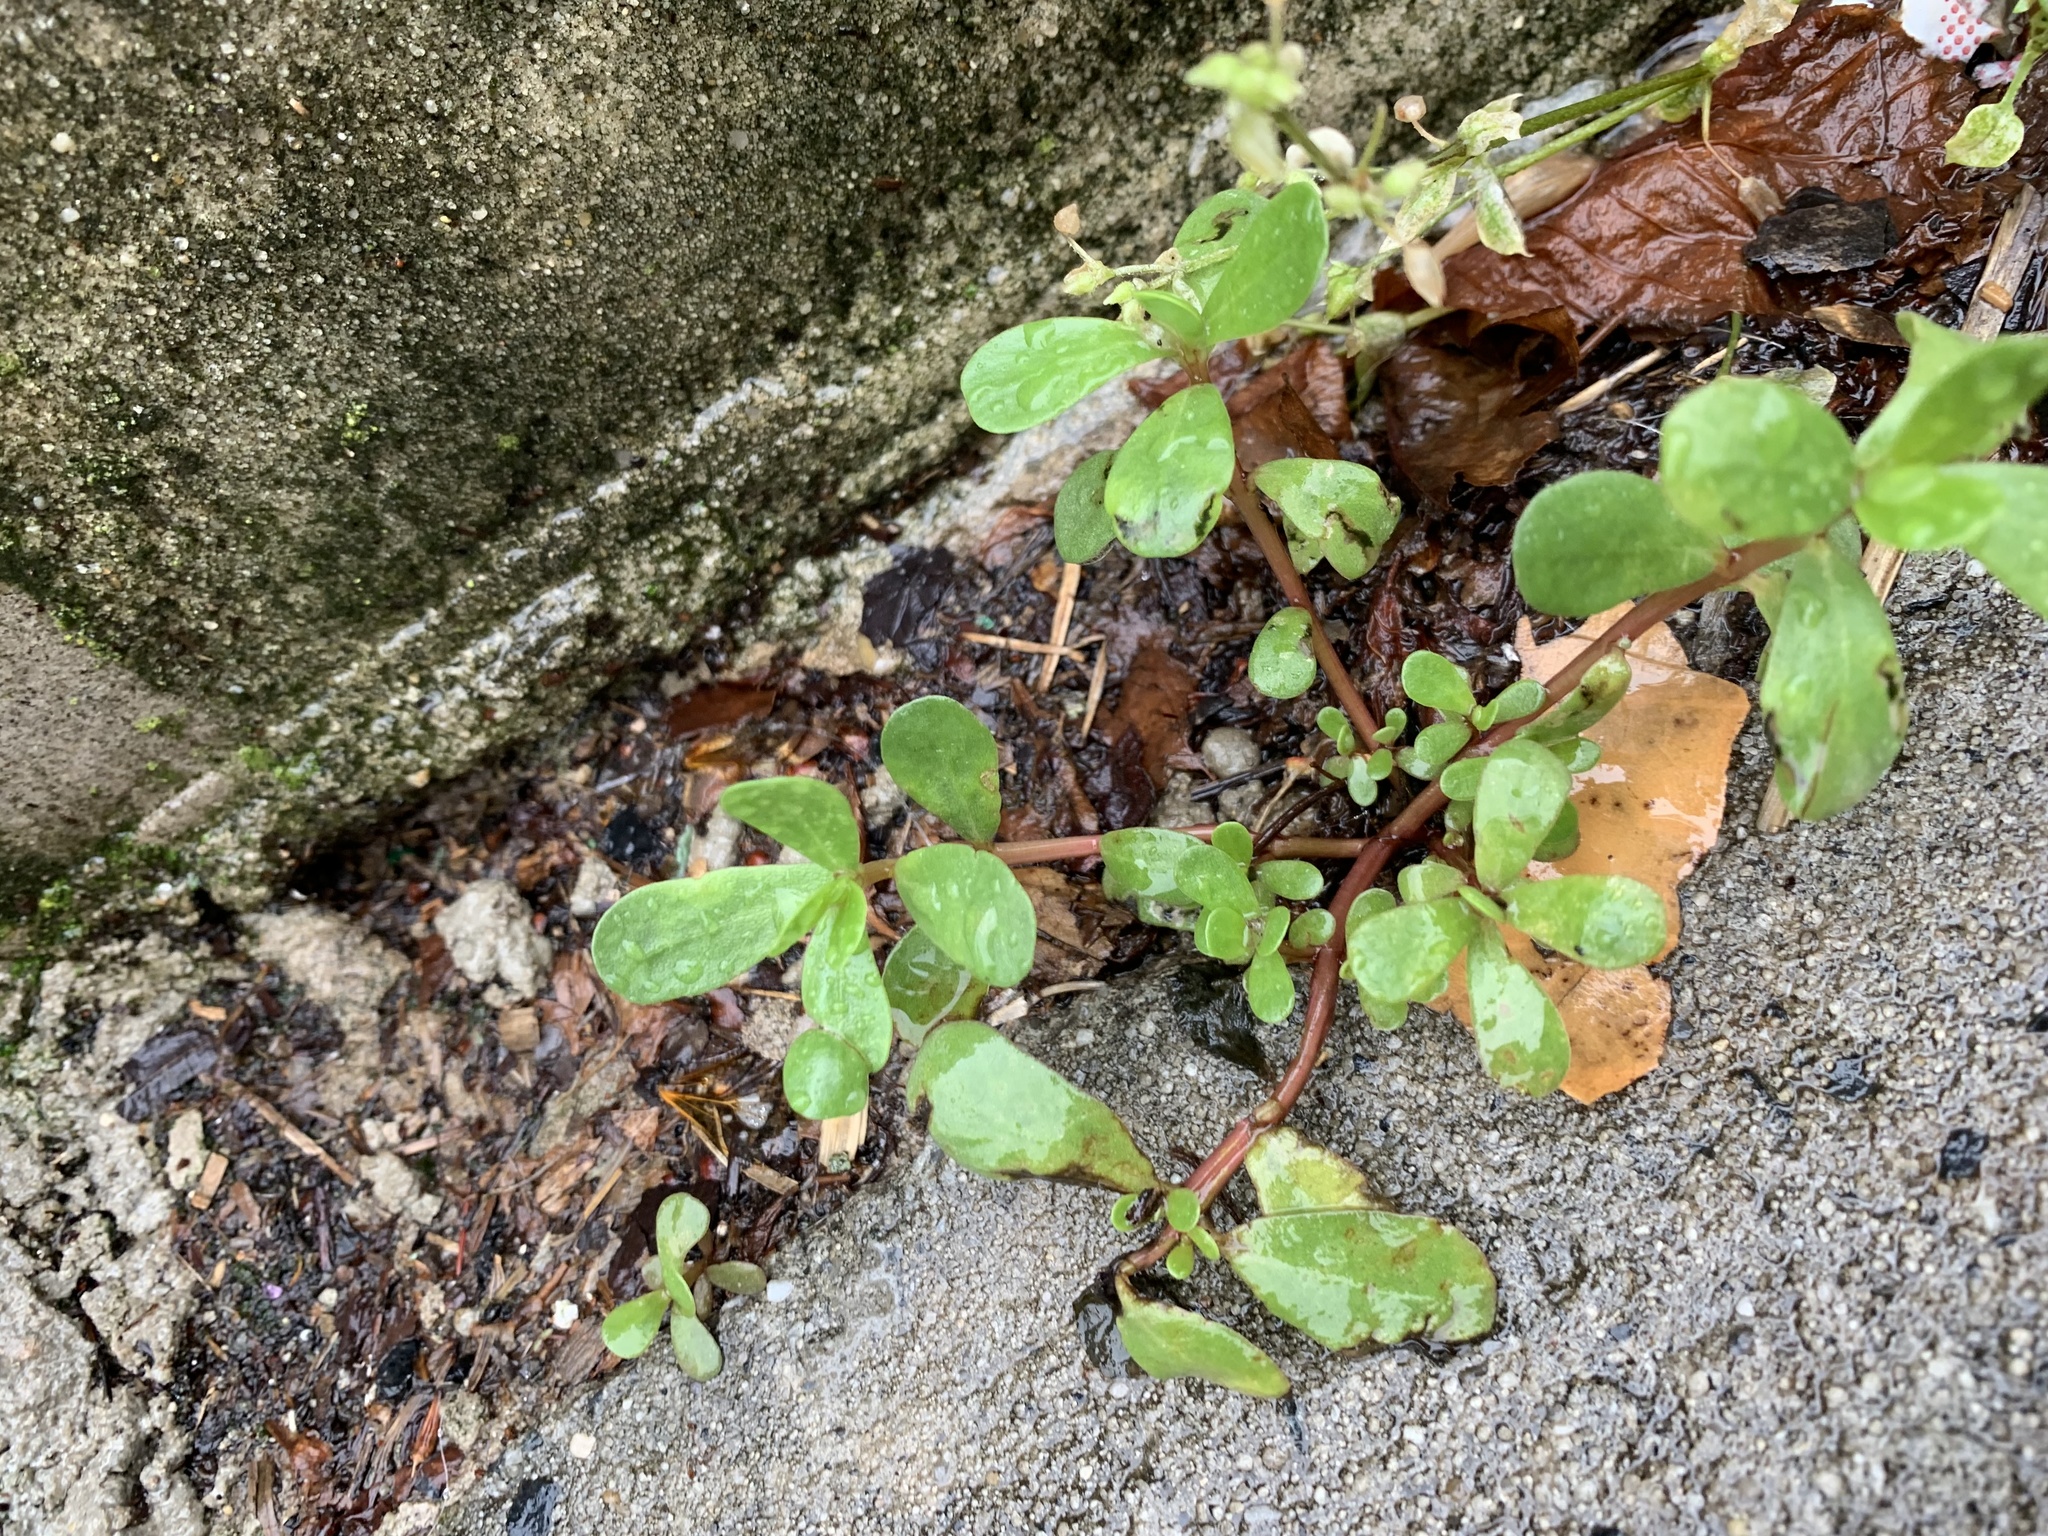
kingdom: Plantae
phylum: Tracheophyta
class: Magnoliopsida
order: Caryophyllales
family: Portulacaceae
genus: Portulaca
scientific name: Portulaca oleracea
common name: Common purslane
